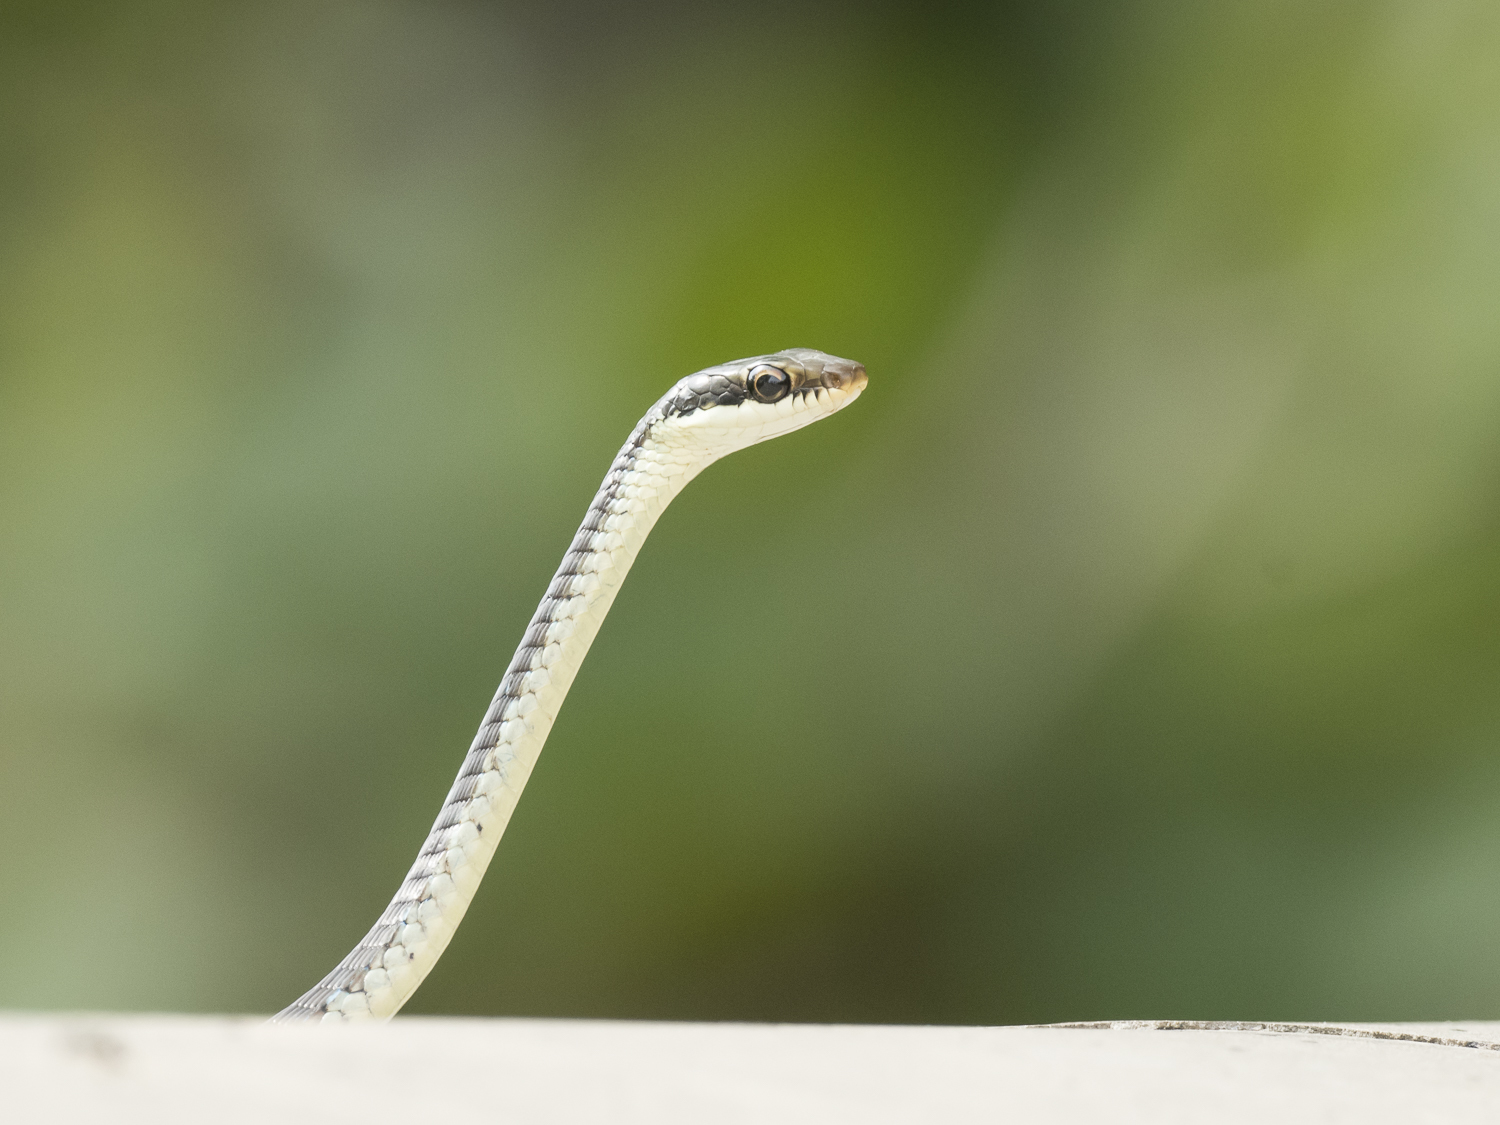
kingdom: Animalia
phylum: Chordata
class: Squamata
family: Colubridae
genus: Dendrelaphis
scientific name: Dendrelaphis tristis
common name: Daudin's bronzeback
